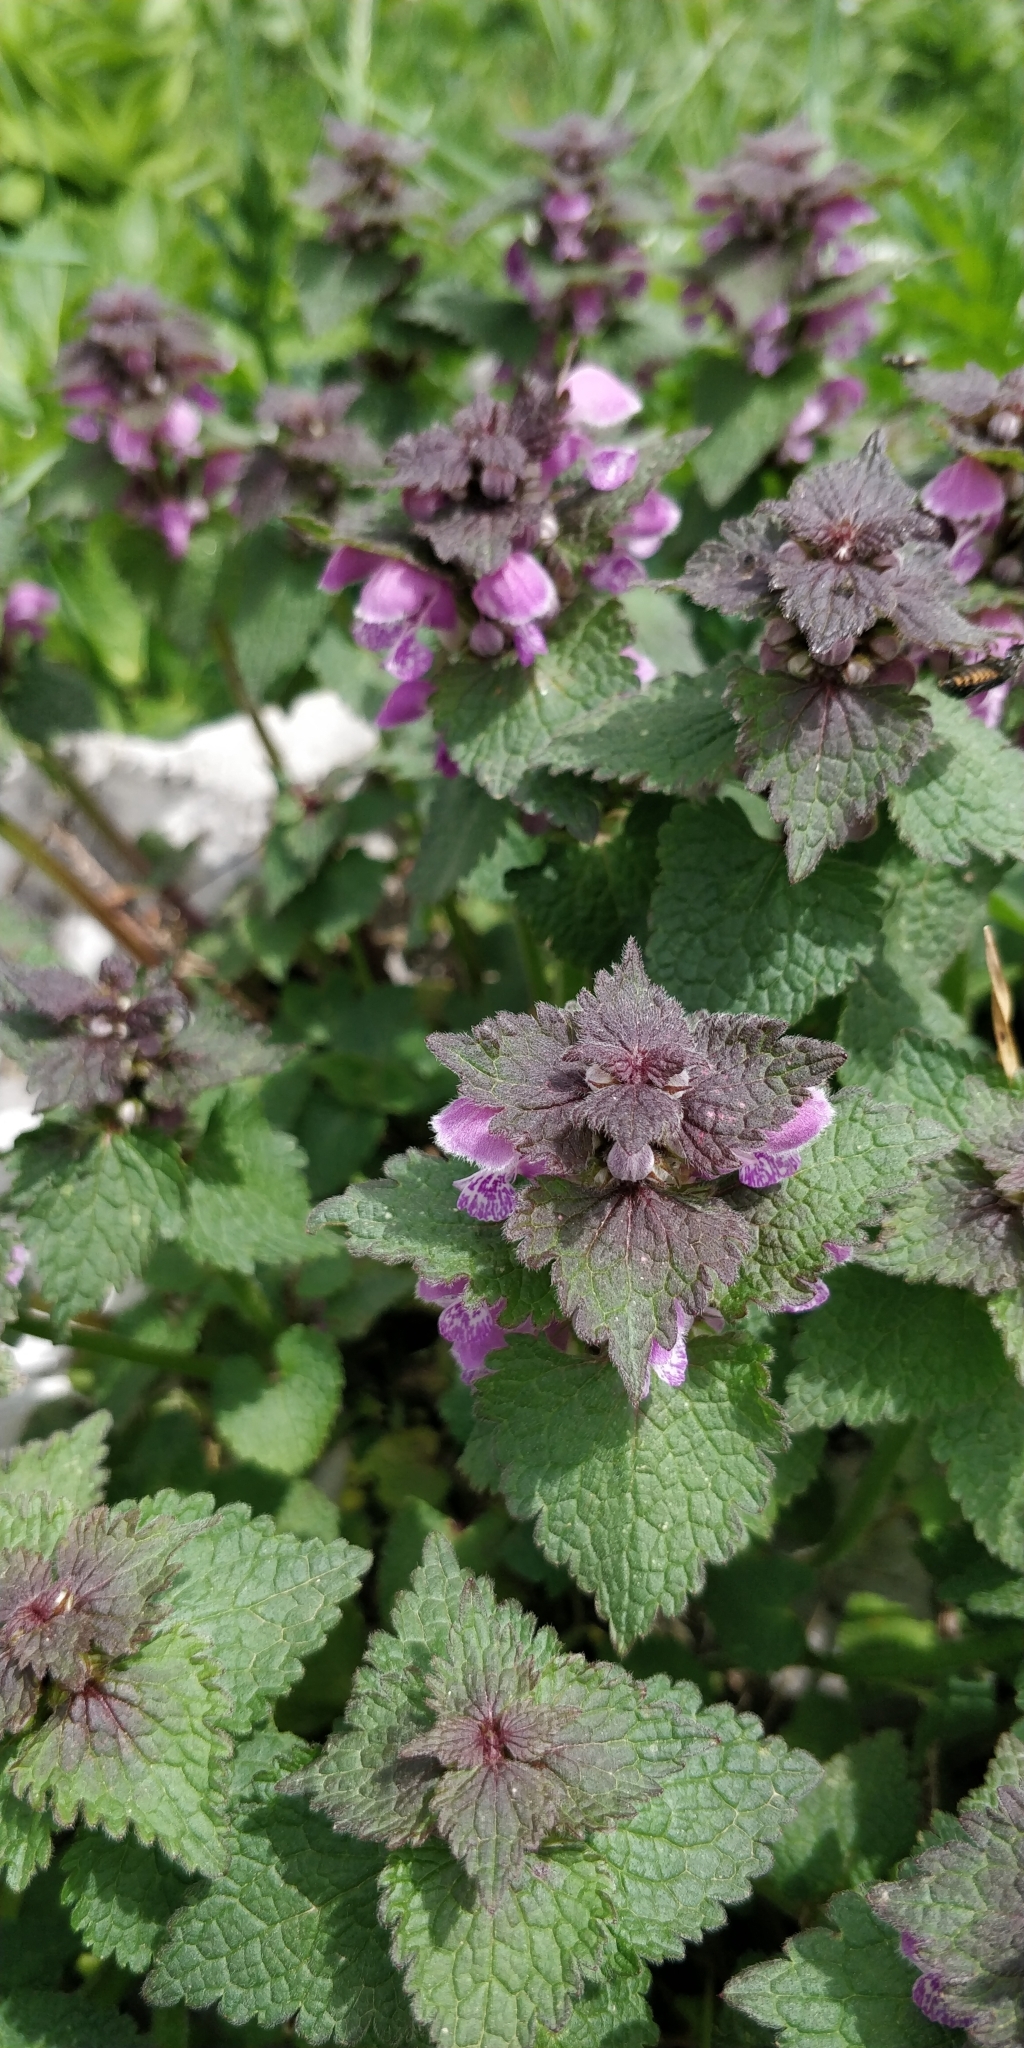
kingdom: Plantae
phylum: Tracheophyta
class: Magnoliopsida
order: Lamiales
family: Lamiaceae
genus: Lamium
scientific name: Lamium maculatum
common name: Spotted dead-nettle
